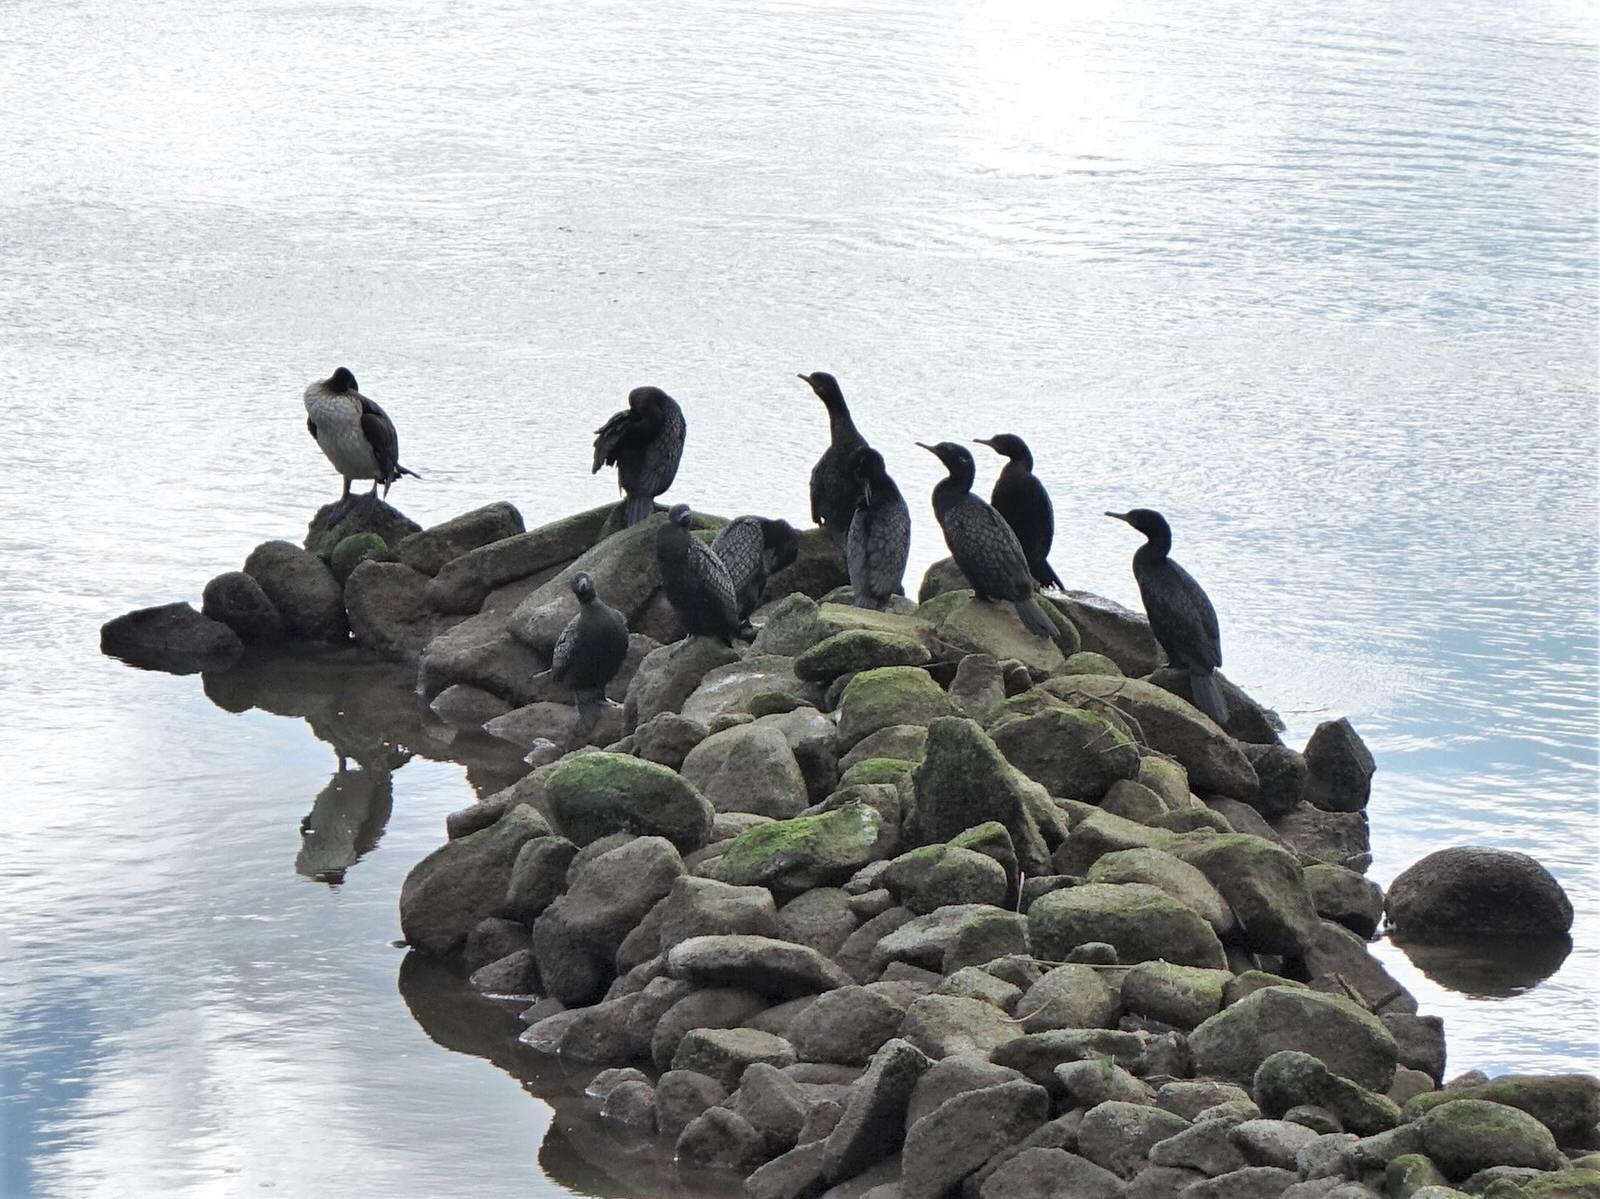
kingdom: Animalia
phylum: Chordata
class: Aves
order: Suliformes
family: Phalacrocoracidae
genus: Phalacrocorax
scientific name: Phalacrocorax sulcirostris
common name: Little black cormorant
